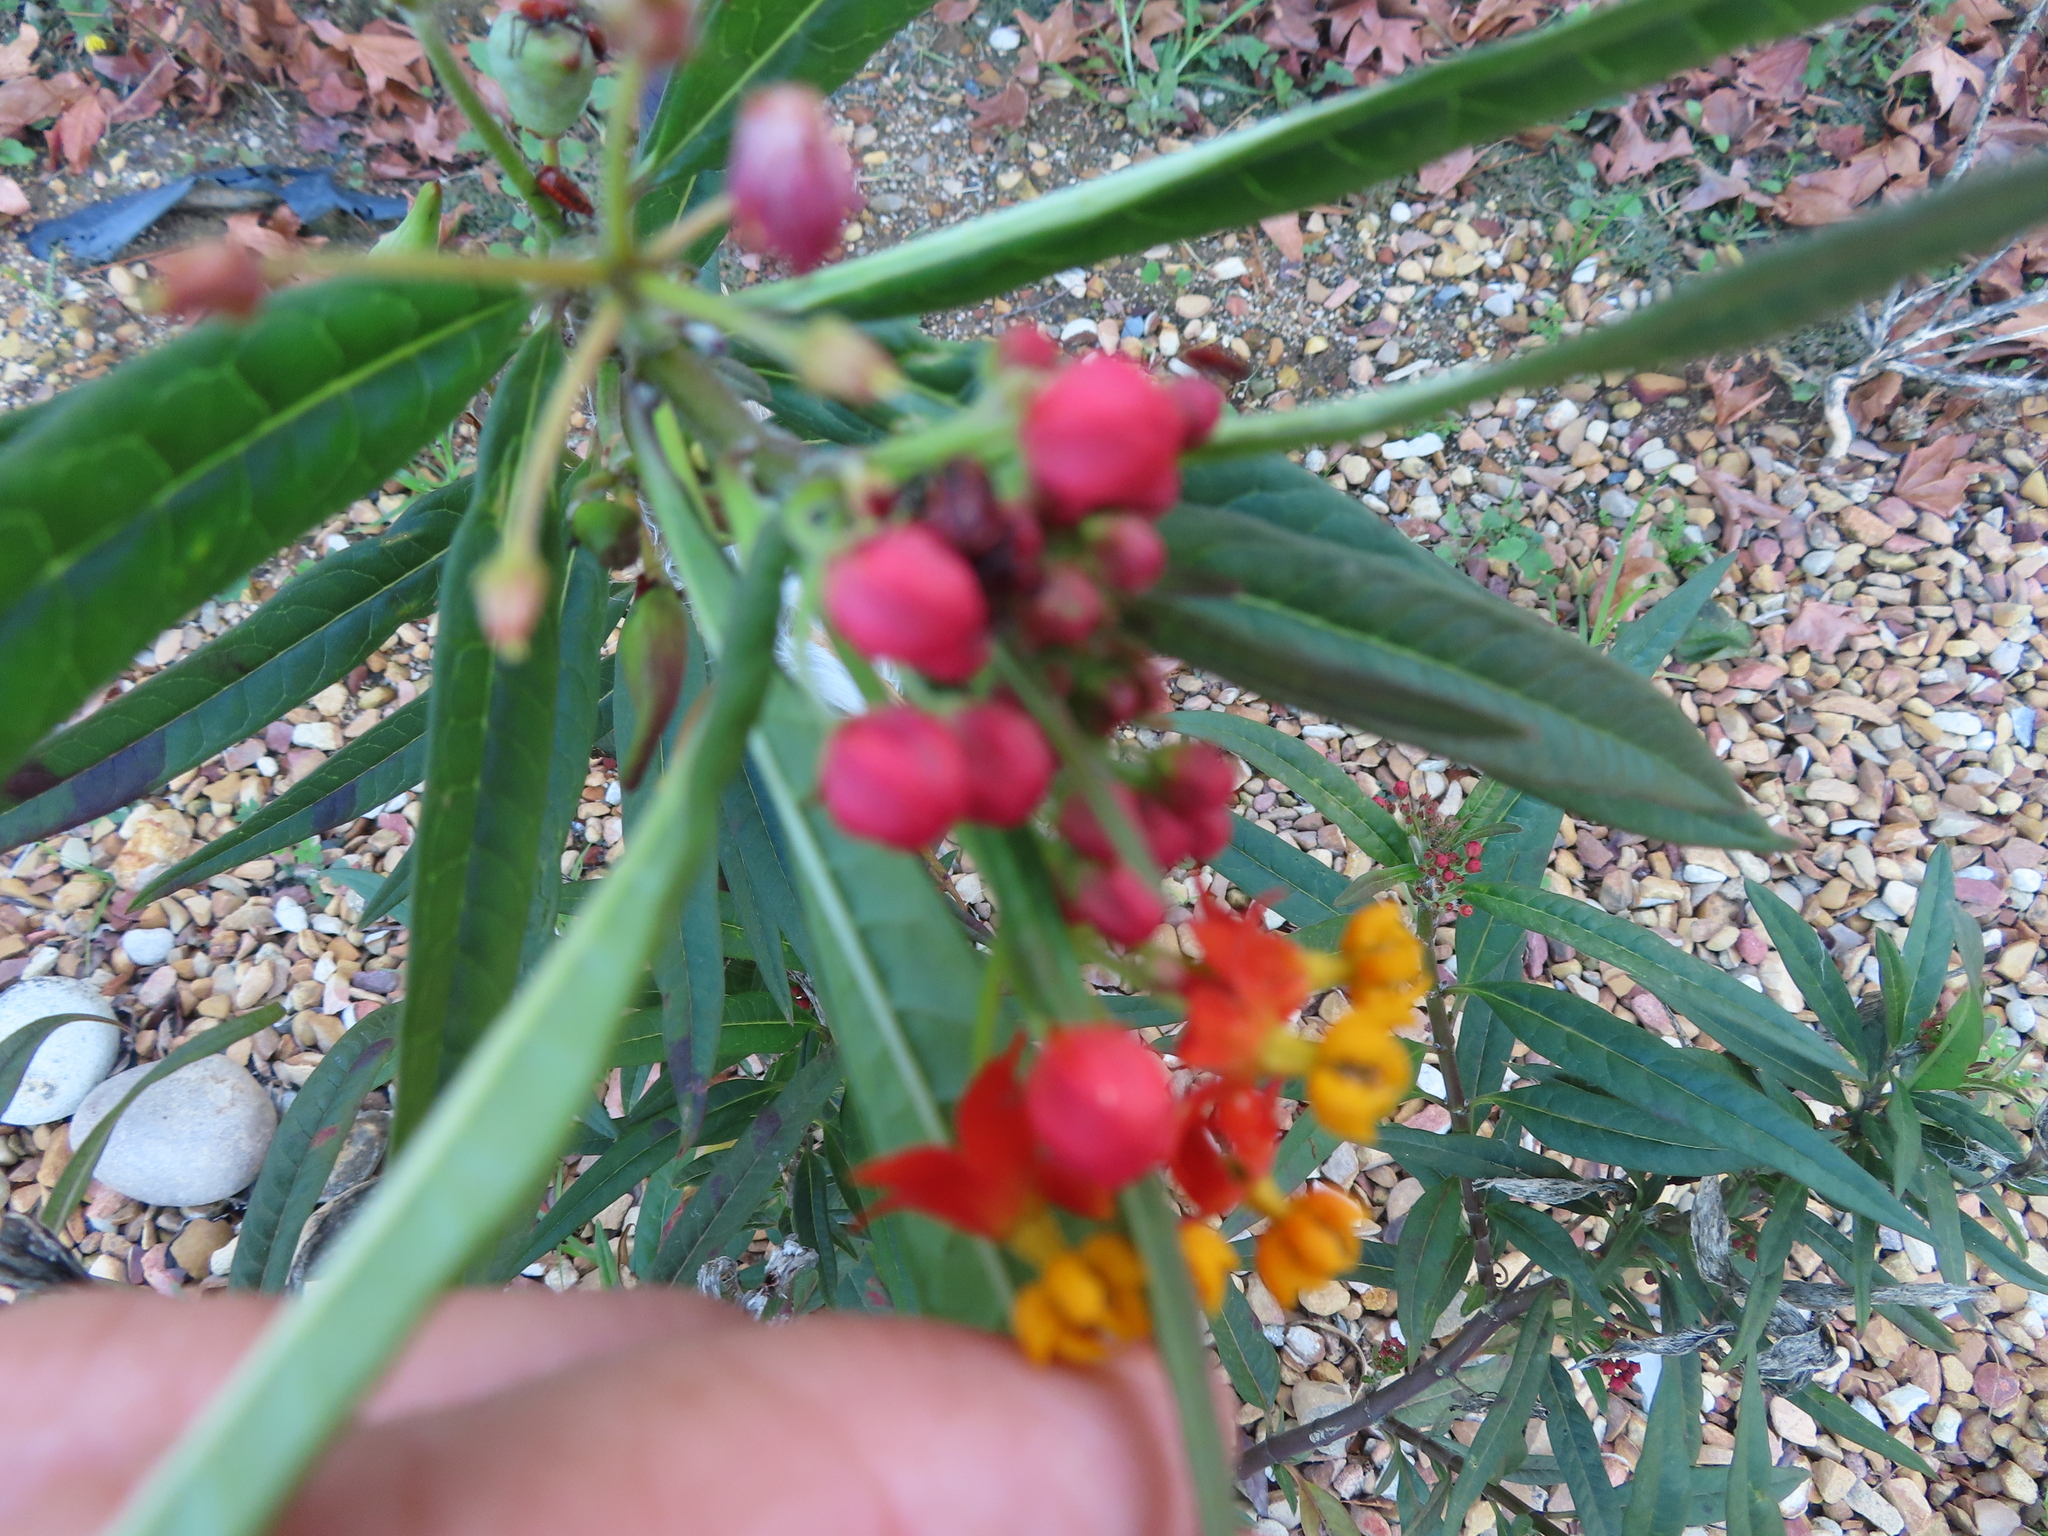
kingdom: Plantae
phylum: Tracheophyta
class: Magnoliopsida
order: Gentianales
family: Apocynaceae
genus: Asclepias
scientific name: Asclepias curassavica
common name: Bloodflower
